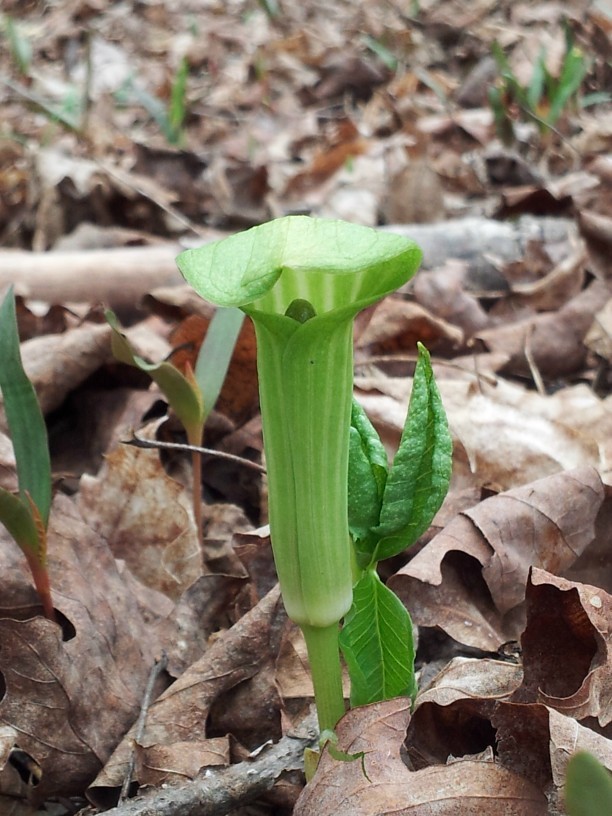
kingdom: Plantae
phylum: Tracheophyta
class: Liliopsida
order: Alismatales
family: Araceae
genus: Arisaema
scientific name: Arisaema triphyllum
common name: Jack-in-the-pulpit
